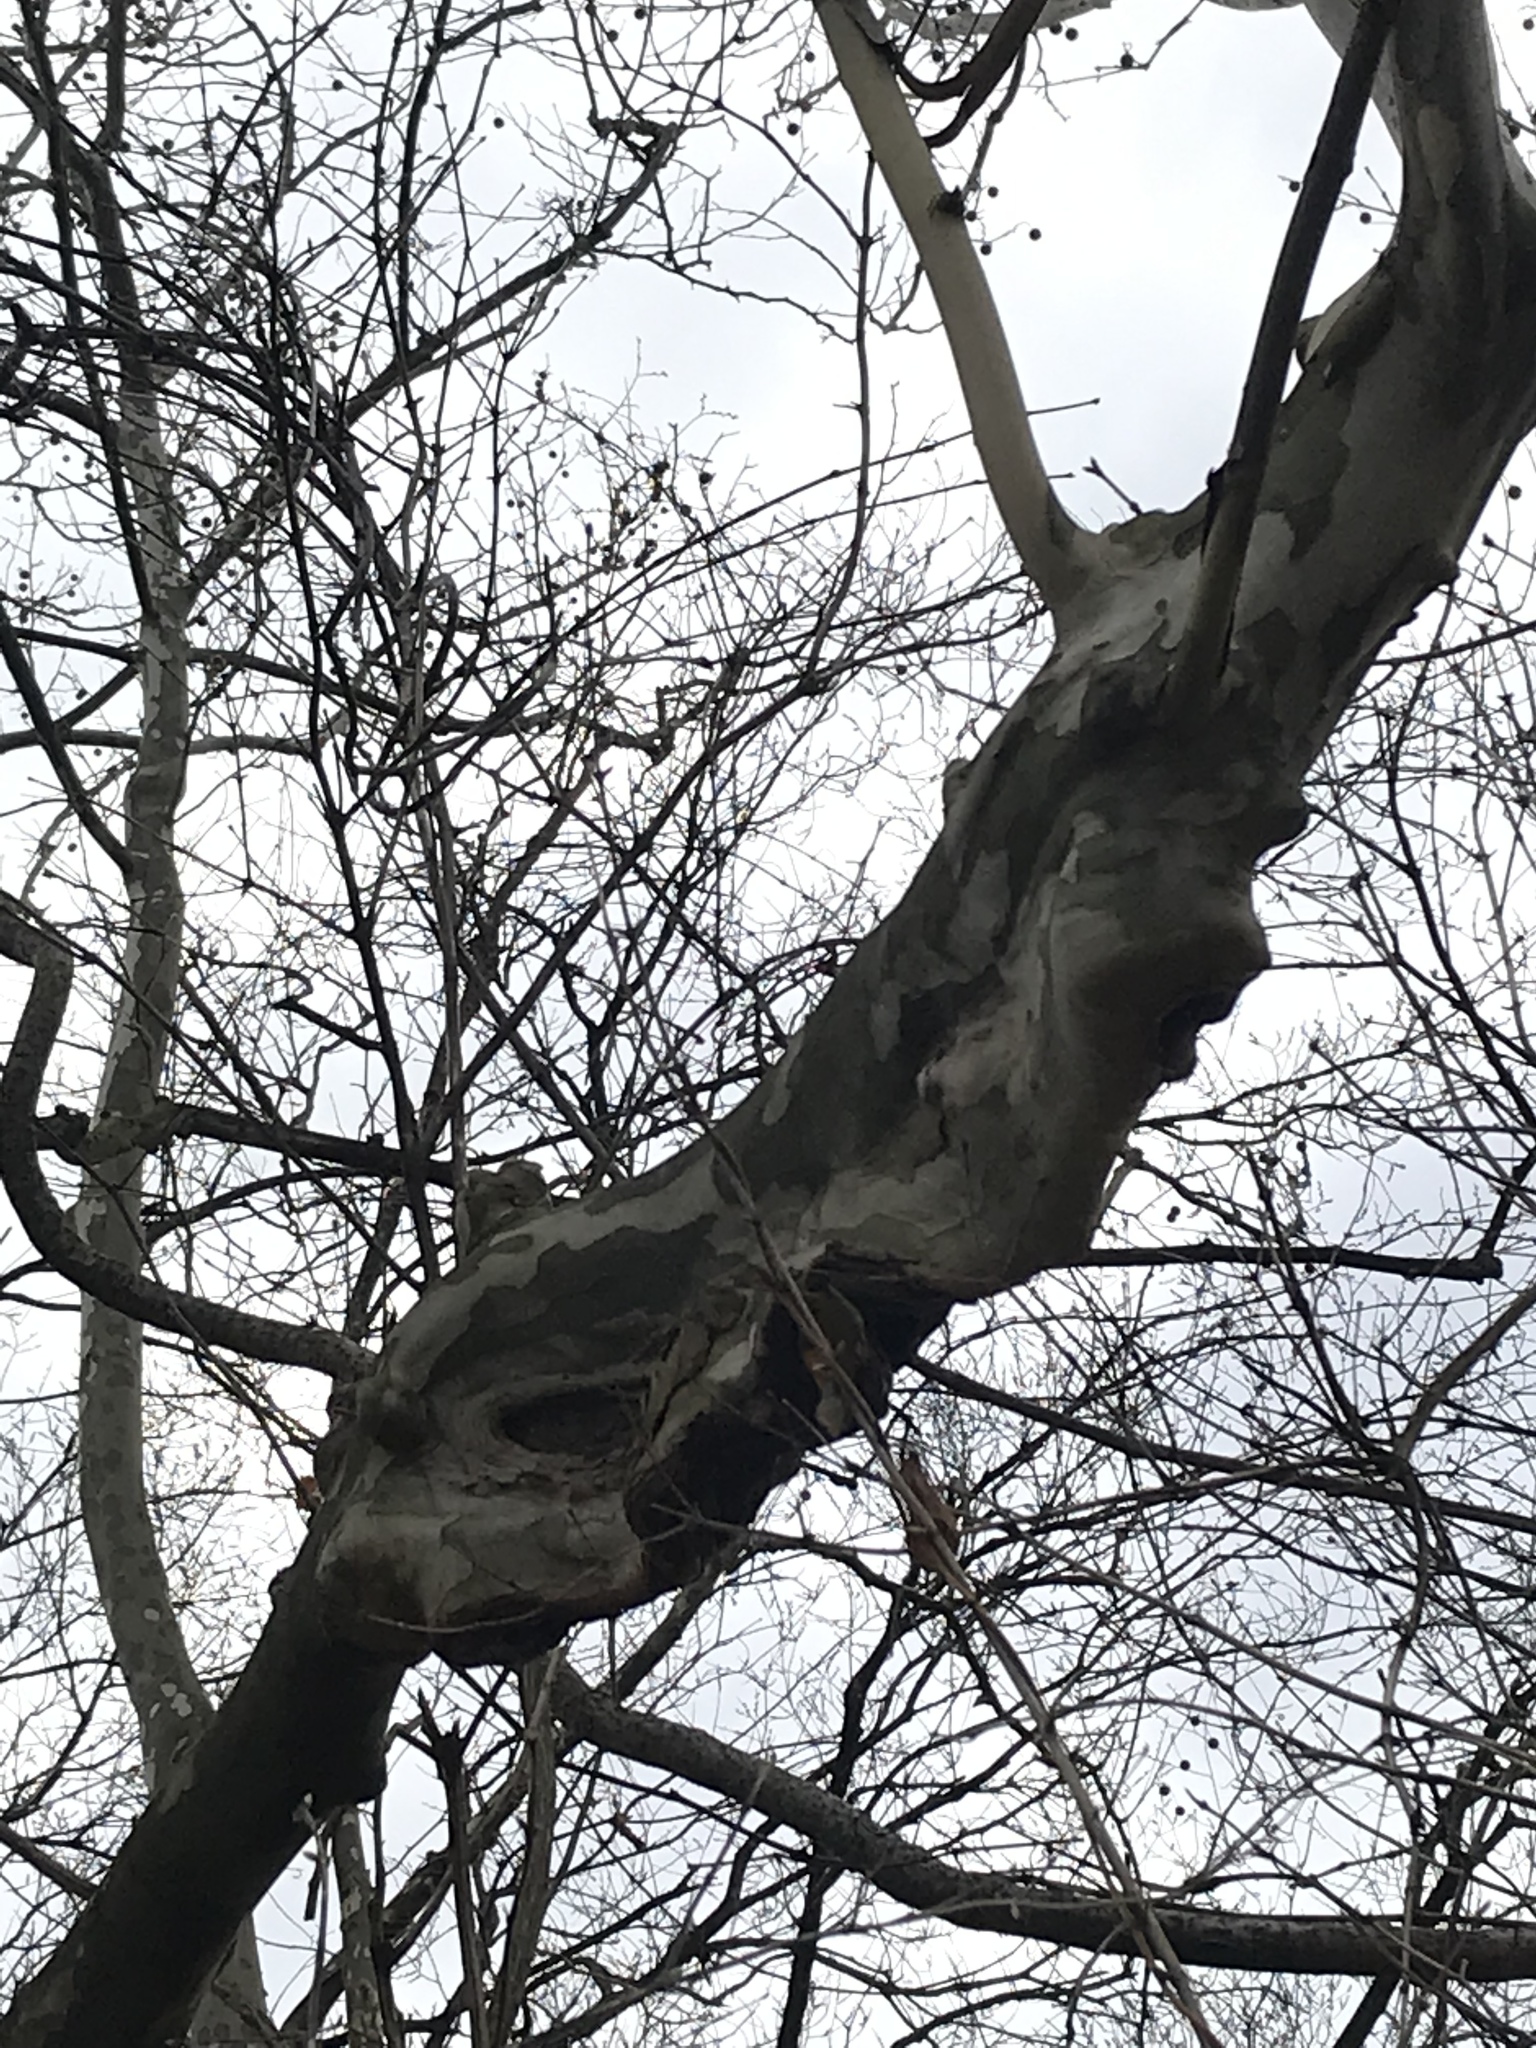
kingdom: Plantae
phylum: Tracheophyta
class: Magnoliopsida
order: Proteales
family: Platanaceae
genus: Platanus
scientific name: Platanus occidentalis
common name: American sycamore
